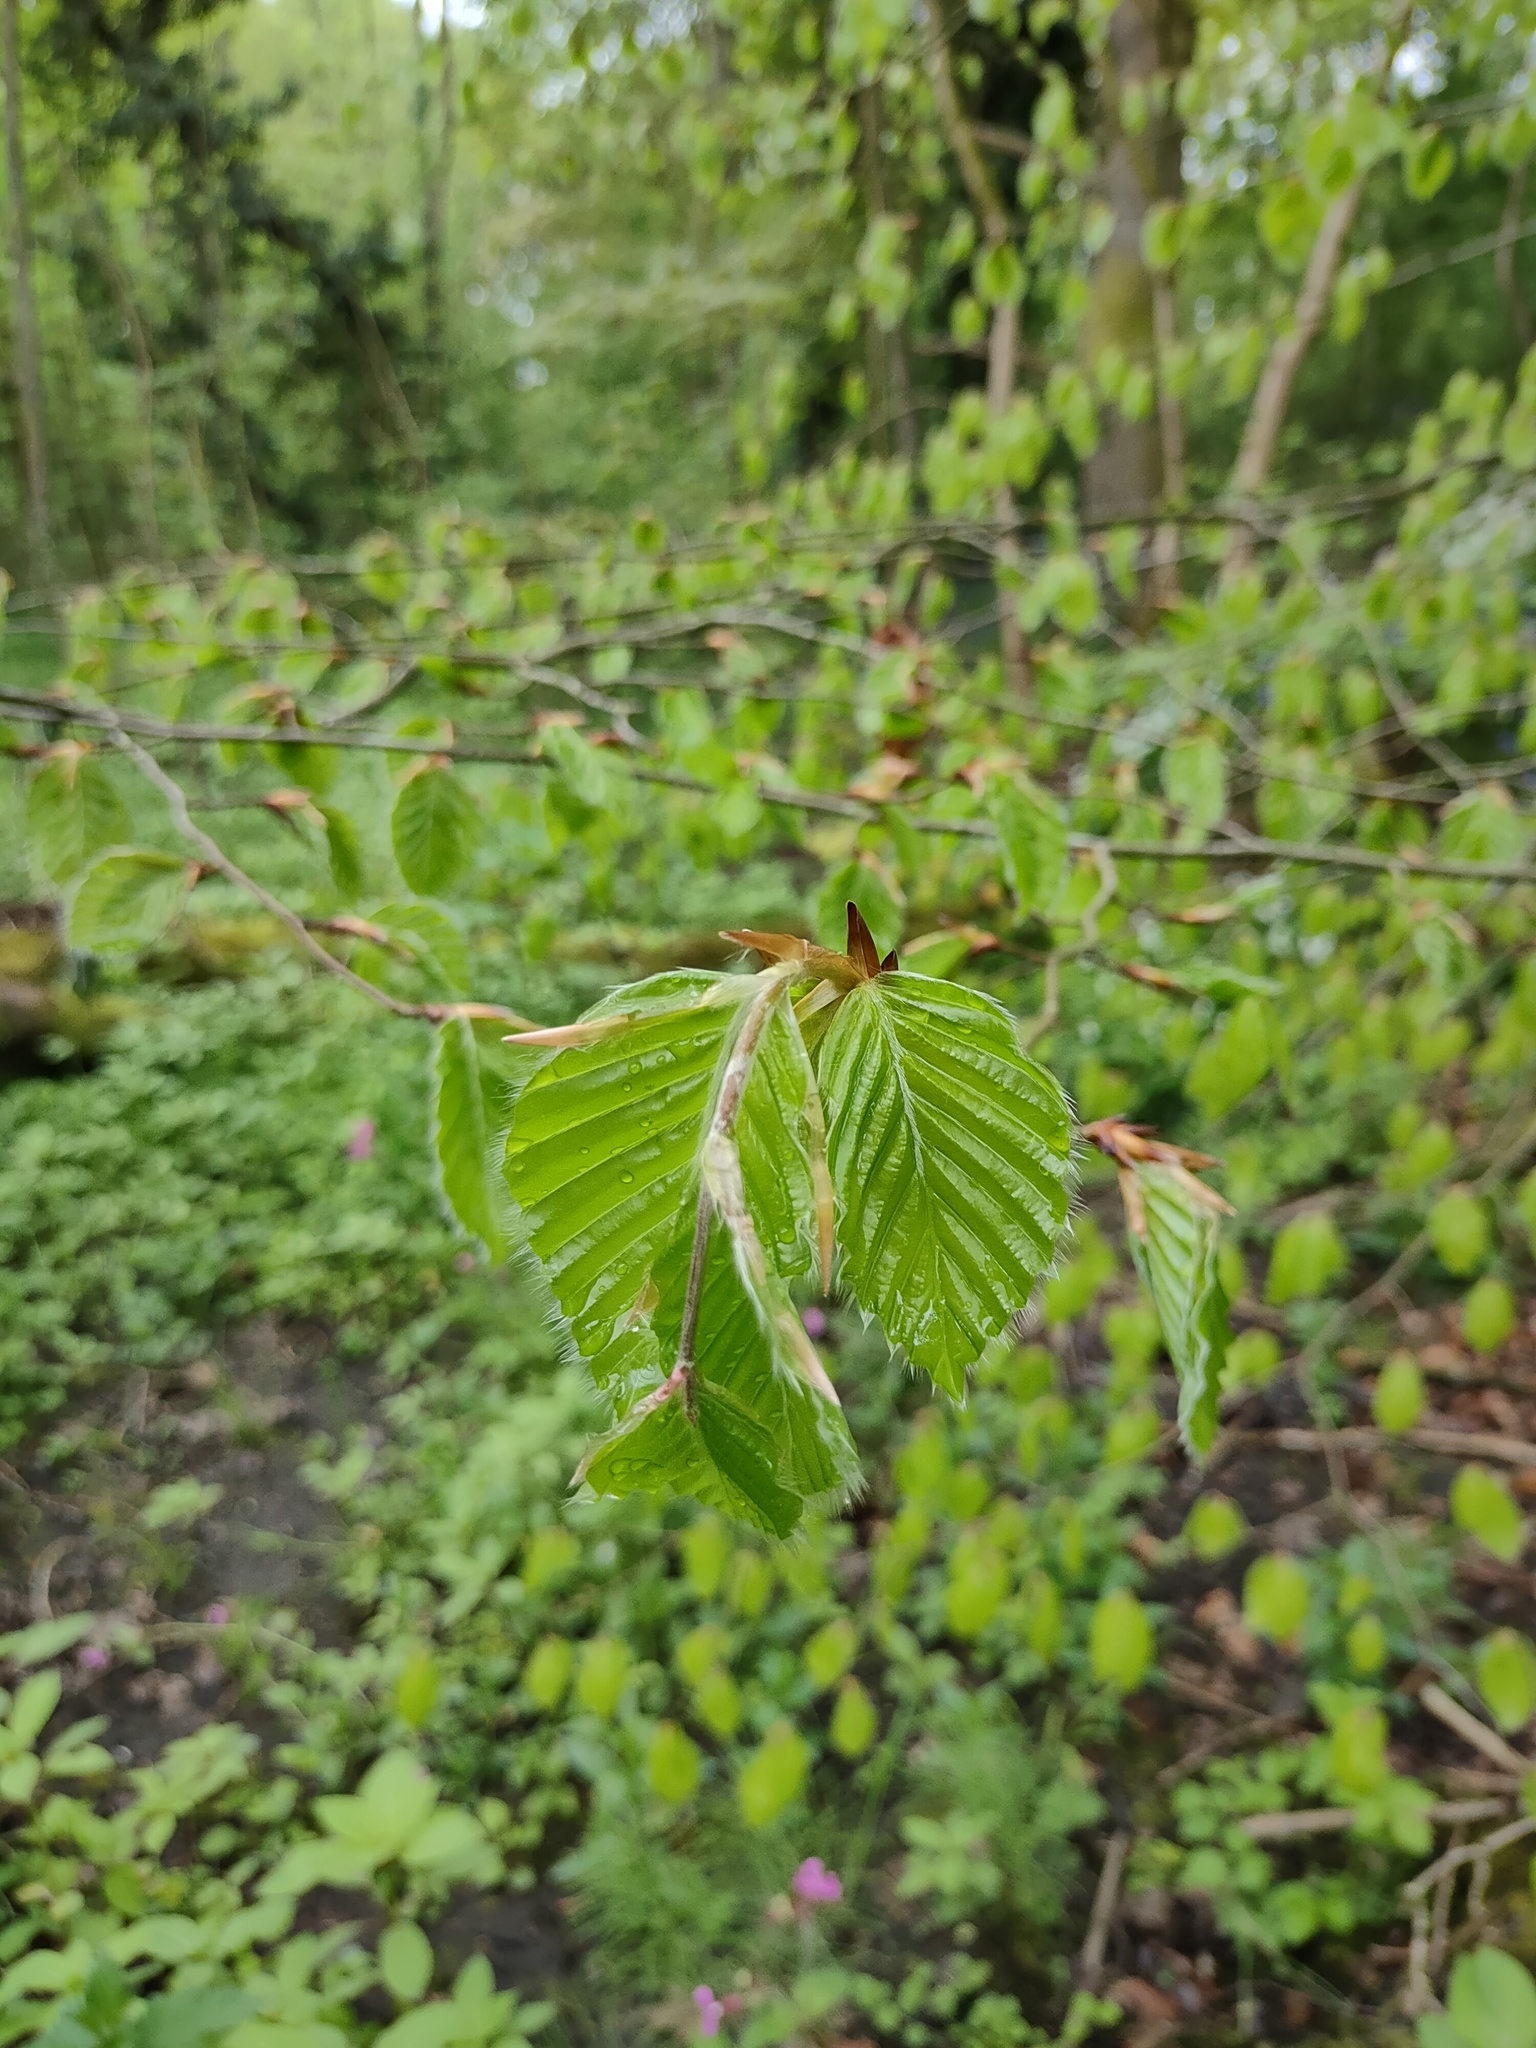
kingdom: Plantae
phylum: Tracheophyta
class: Magnoliopsida
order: Fagales
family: Fagaceae
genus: Fagus
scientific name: Fagus sylvatica
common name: Beech
